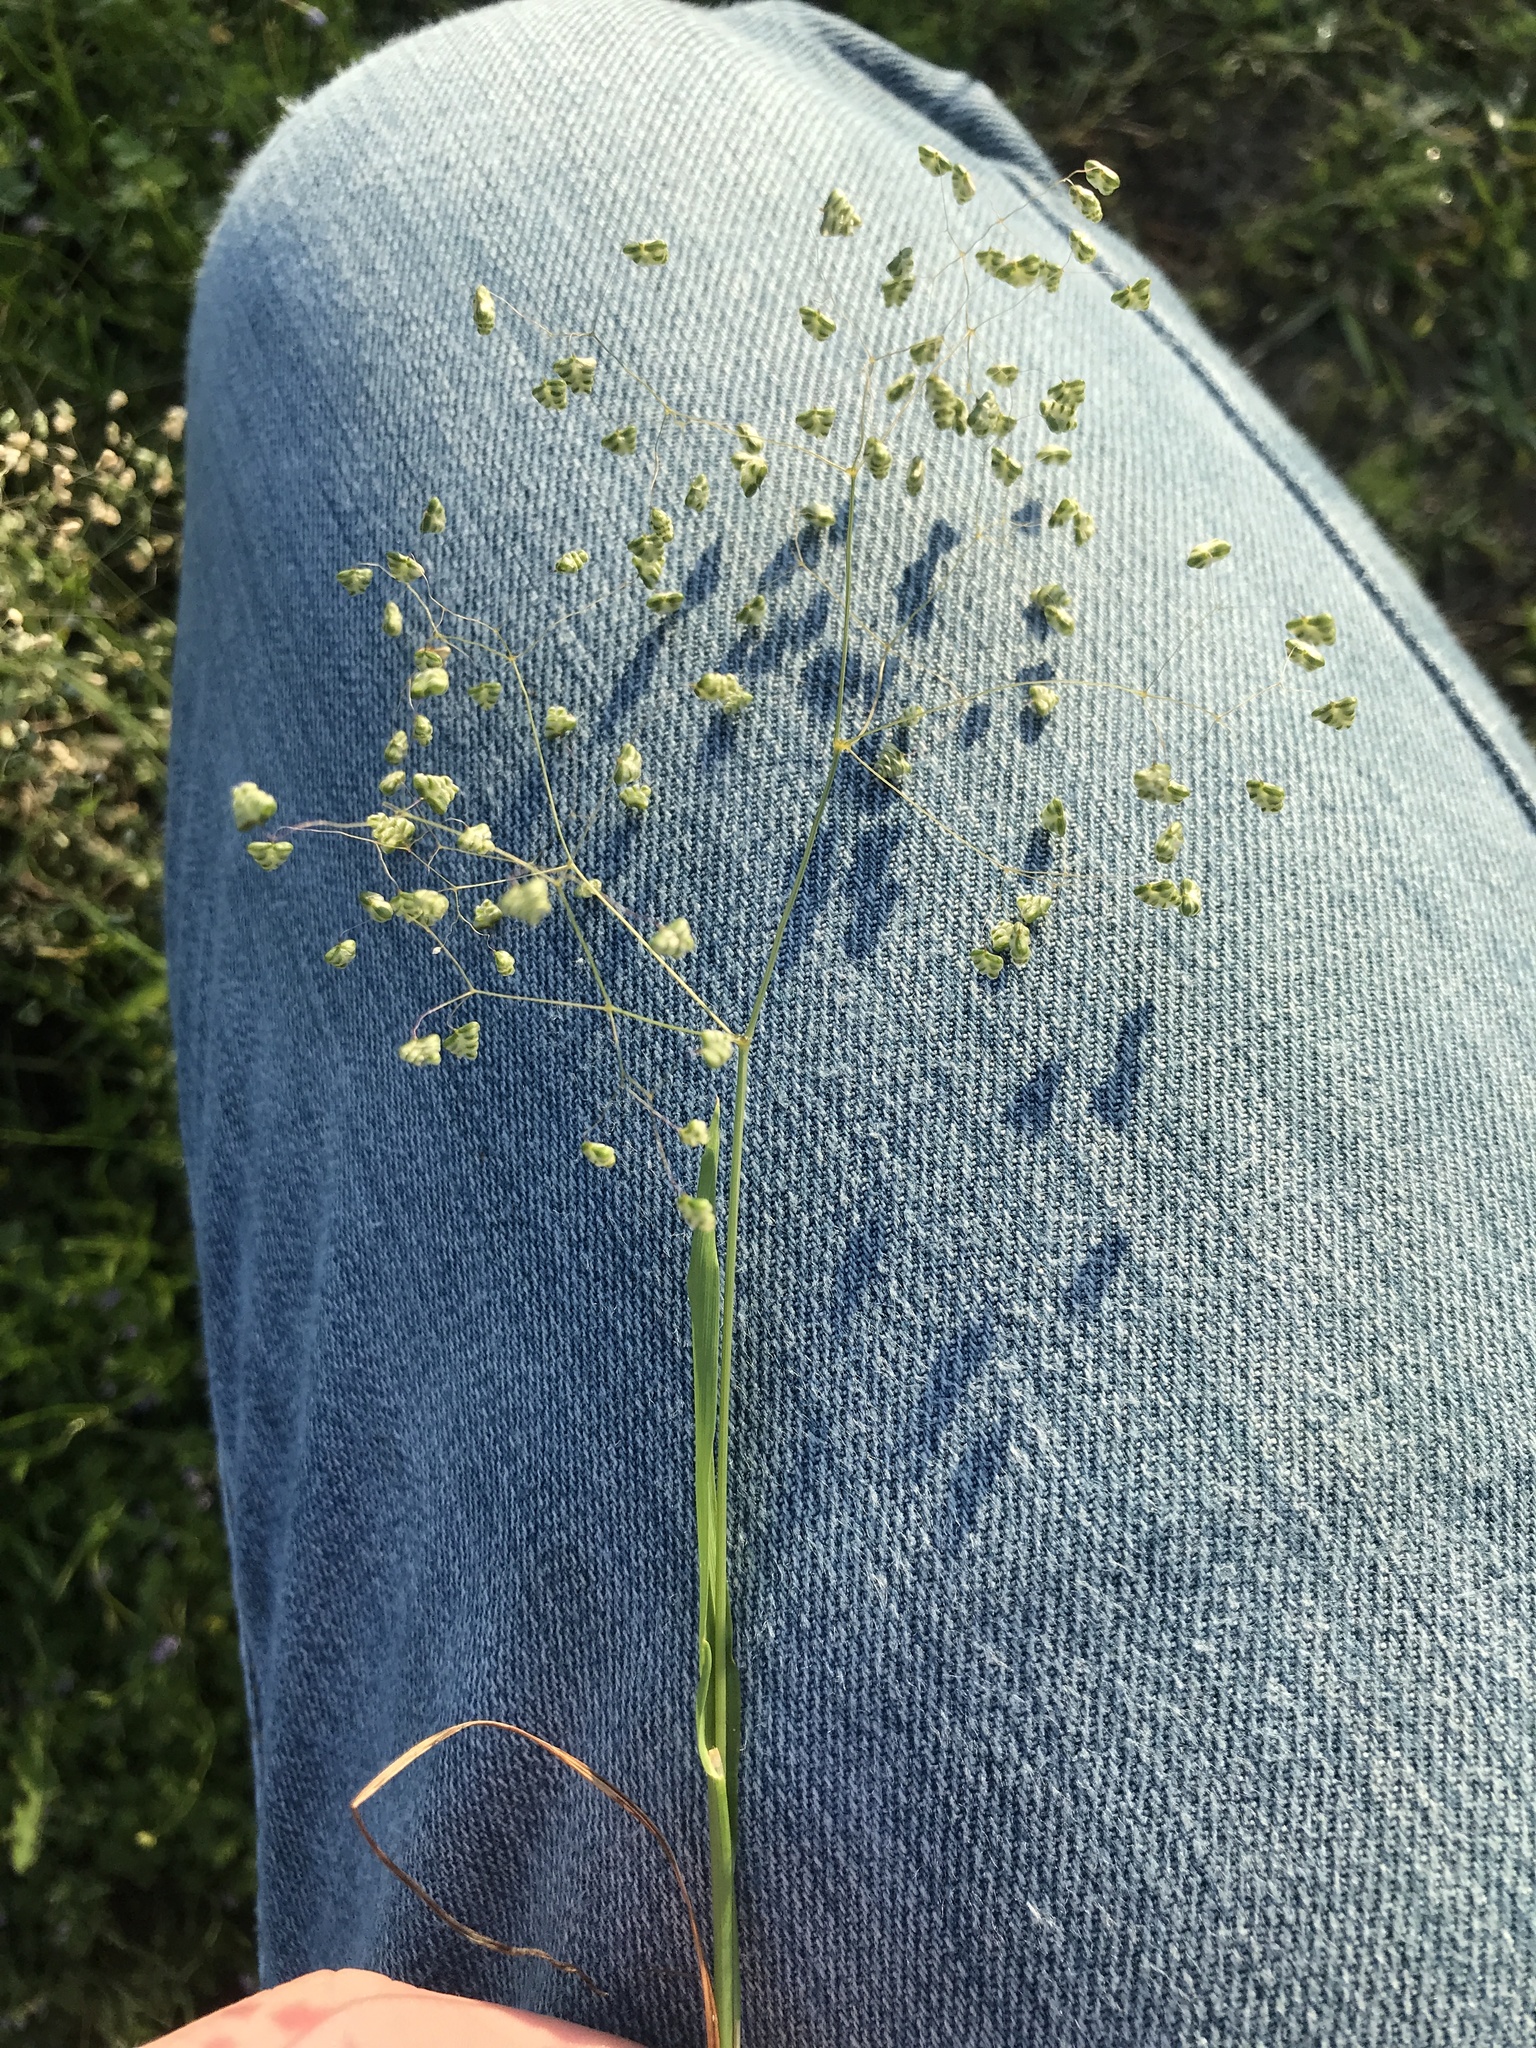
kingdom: Plantae
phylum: Tracheophyta
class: Liliopsida
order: Poales
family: Poaceae
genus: Briza
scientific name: Briza minor
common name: Lesser quaking-grass
